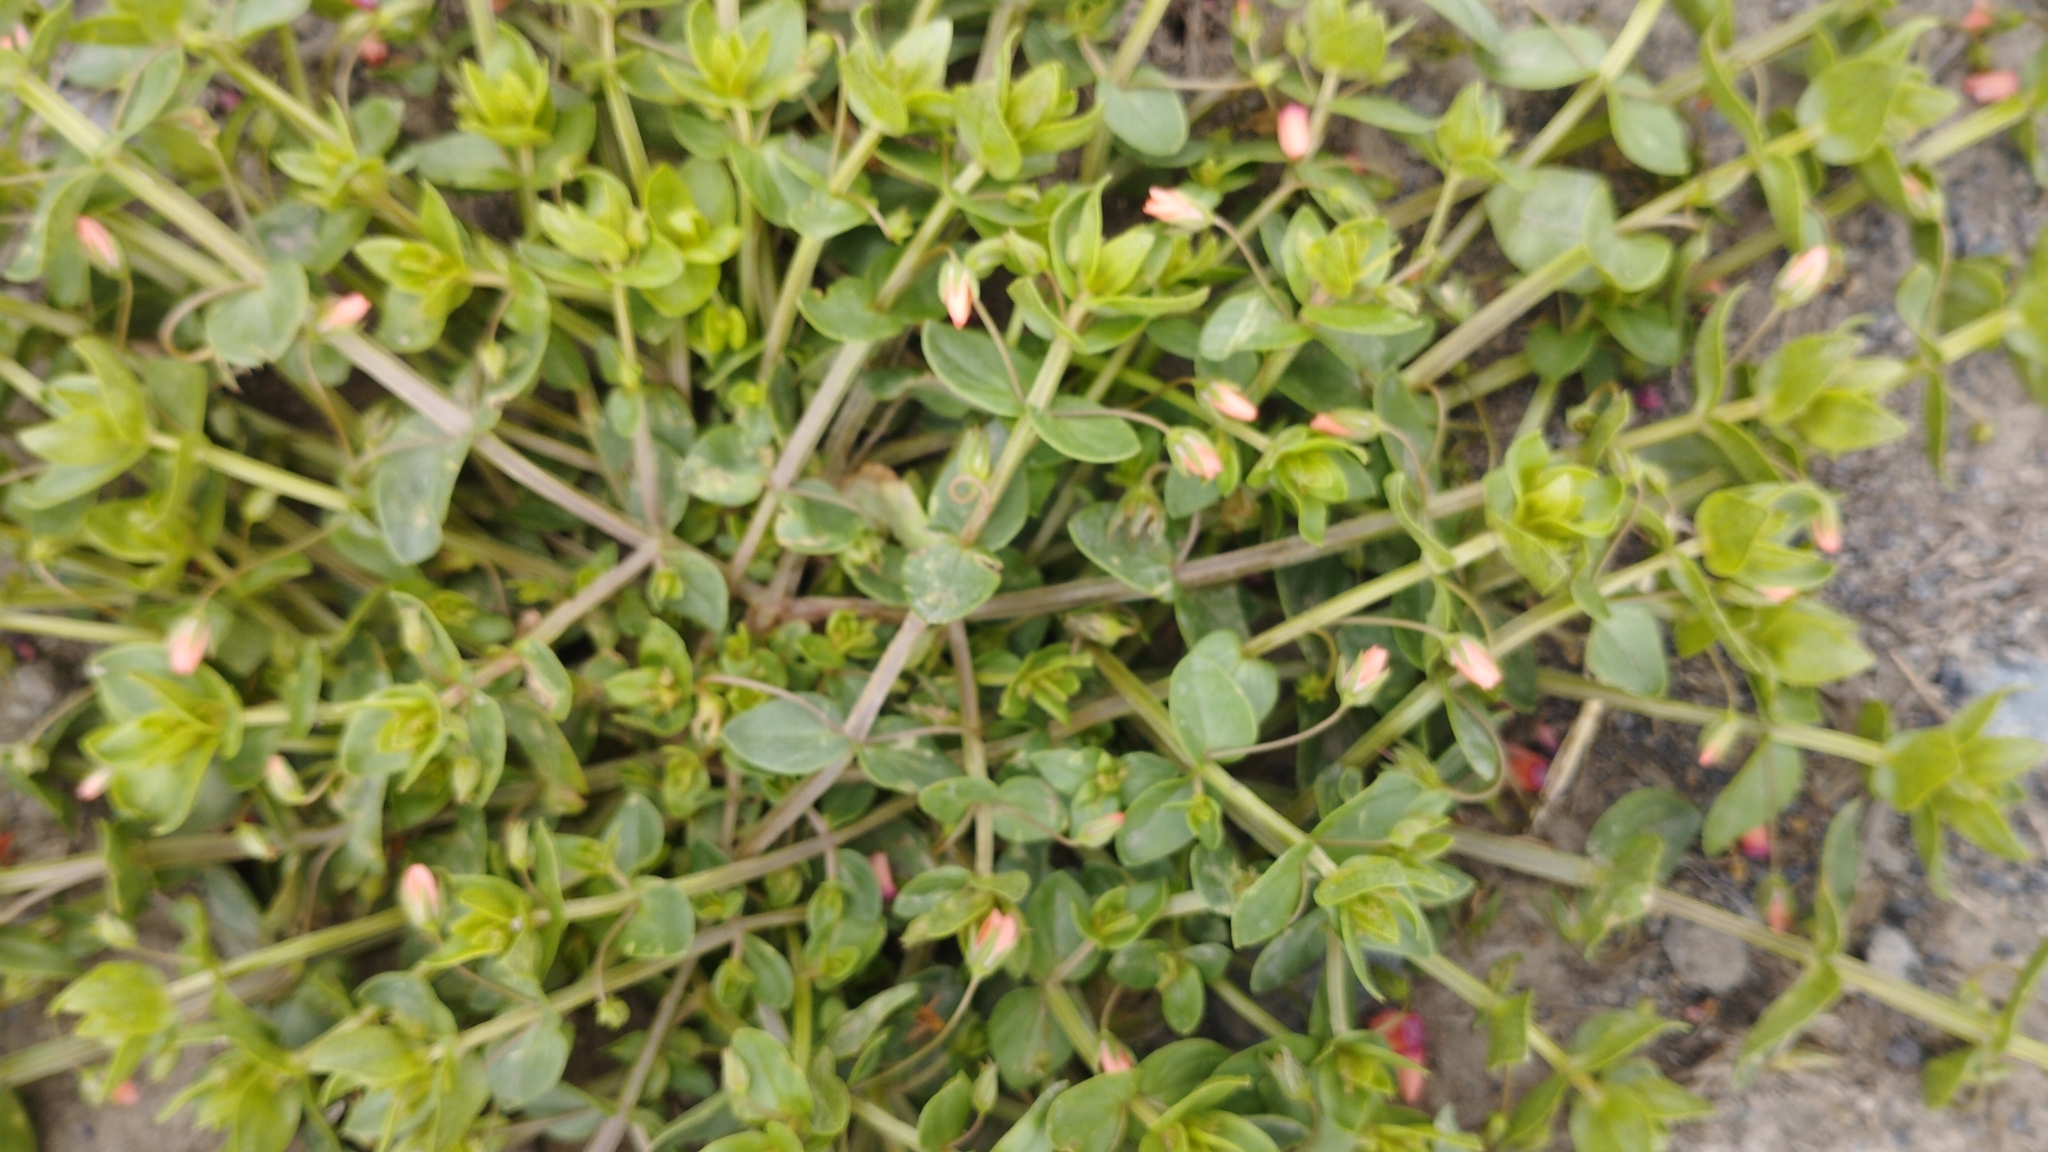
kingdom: Plantae
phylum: Tracheophyta
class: Magnoliopsida
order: Ericales
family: Primulaceae
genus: Lysimachia
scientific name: Lysimachia arvensis
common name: Scarlet pimpernel
